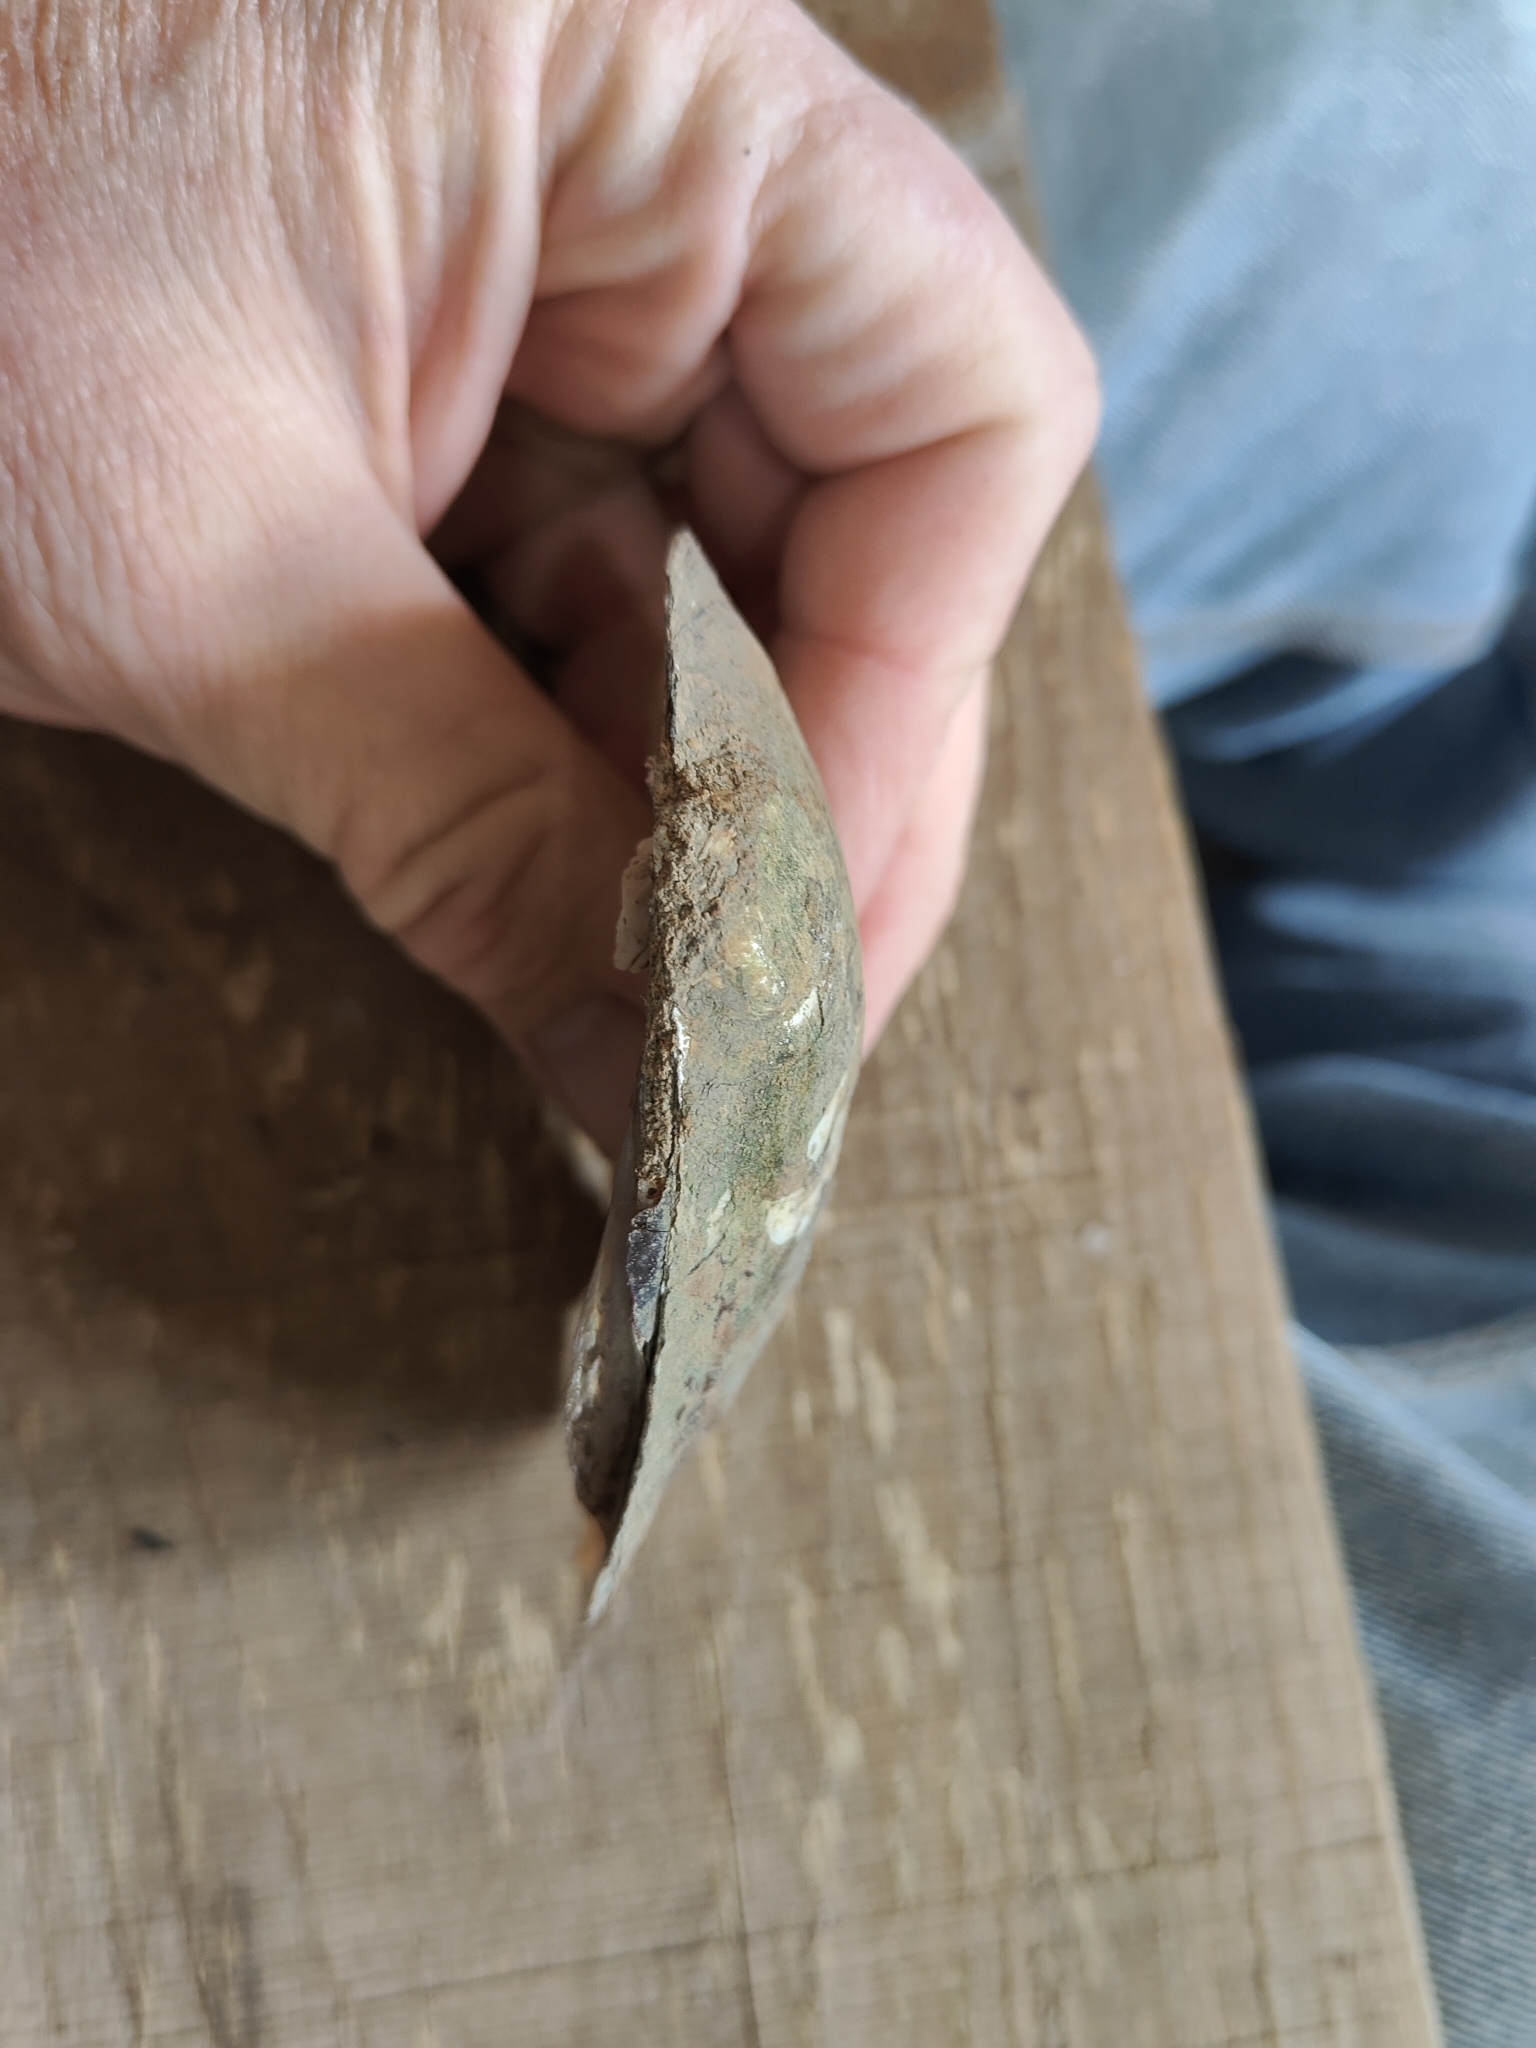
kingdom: Animalia
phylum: Mollusca
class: Bivalvia
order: Unionida
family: Unionidae
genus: Amblema
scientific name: Amblema plicata
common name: Threeridge
